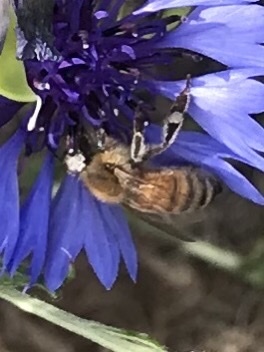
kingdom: Animalia
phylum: Arthropoda
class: Insecta
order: Hymenoptera
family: Apidae
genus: Apis
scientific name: Apis mellifera
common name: Honey bee
